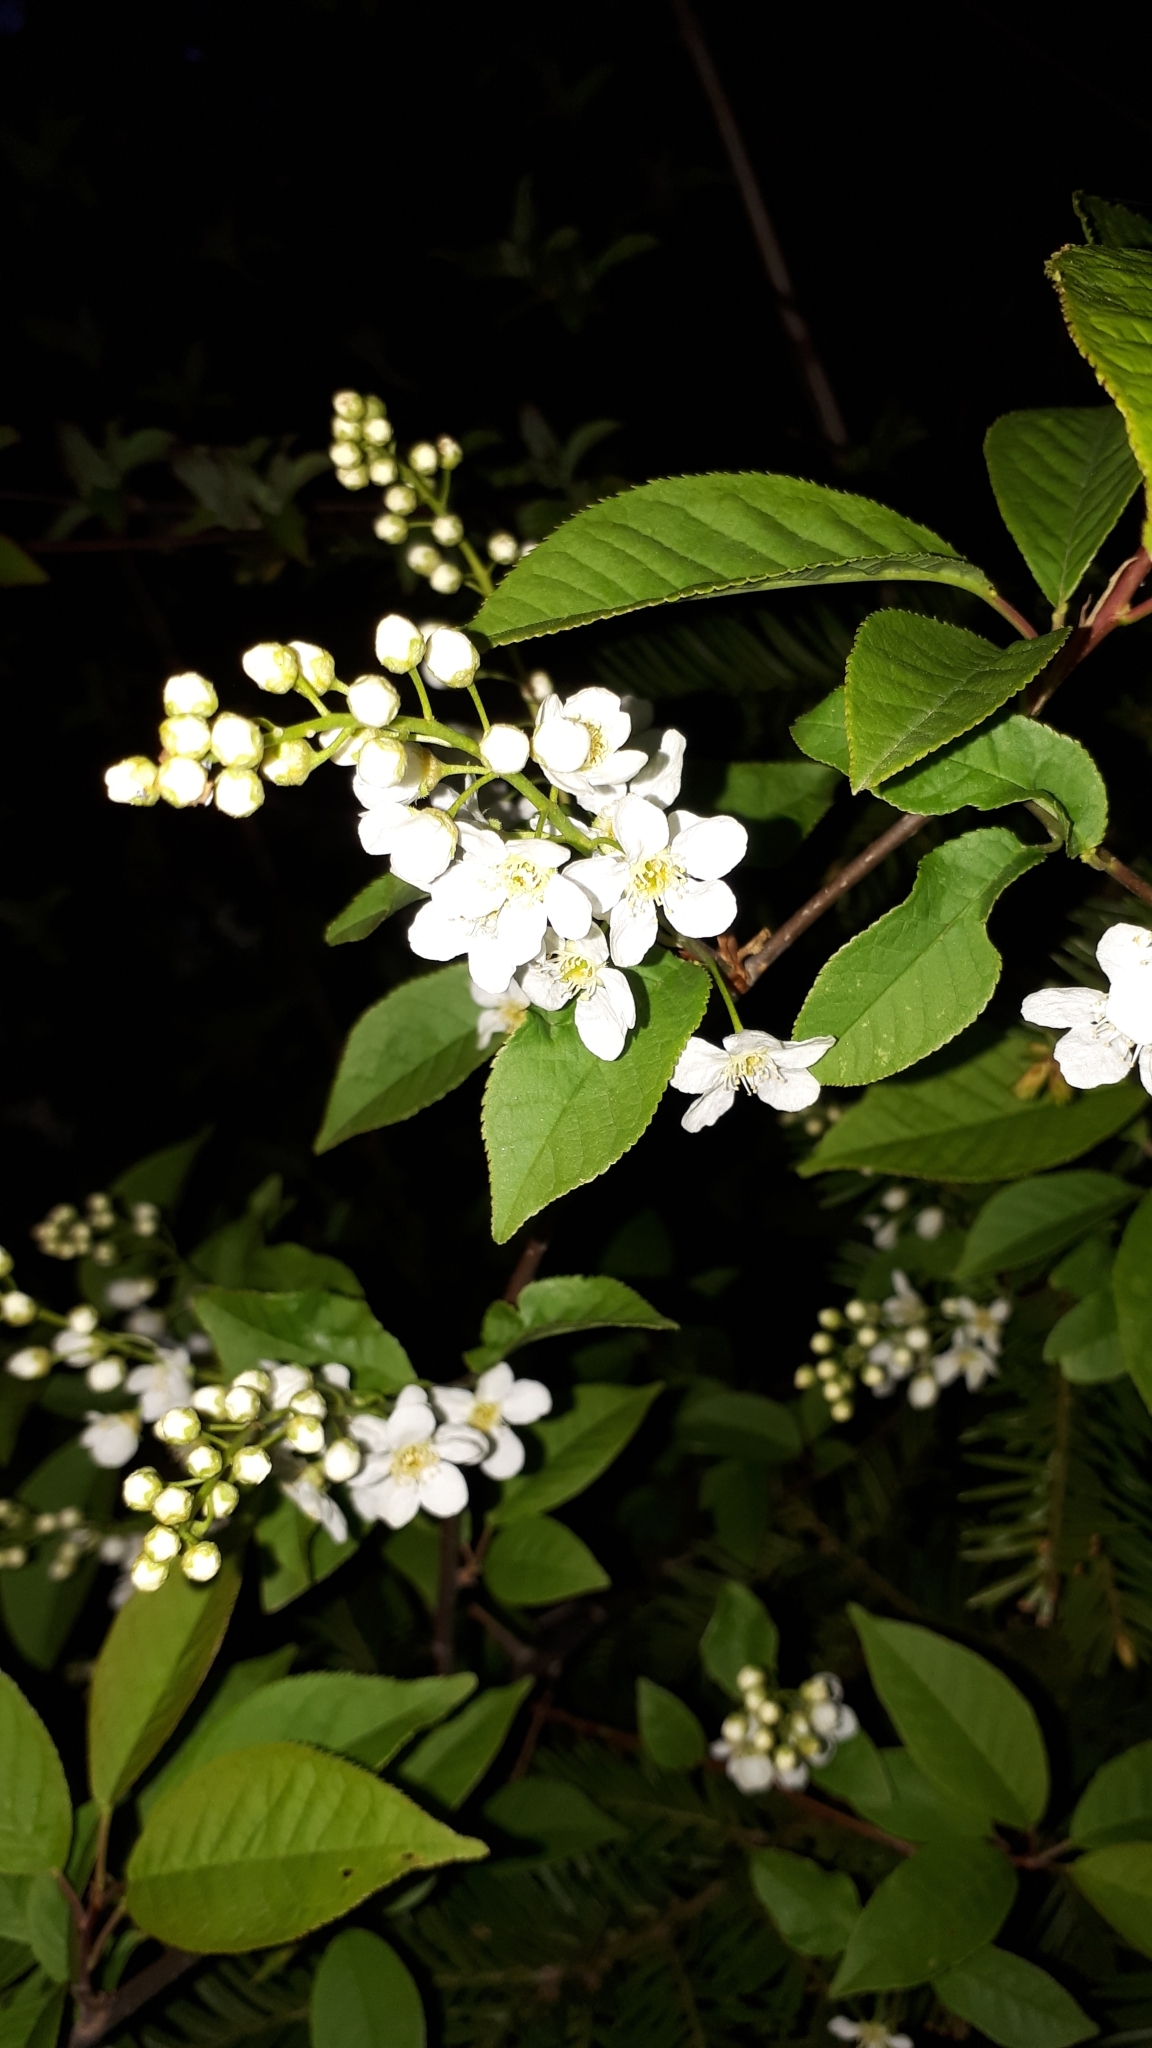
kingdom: Plantae
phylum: Tracheophyta
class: Magnoliopsida
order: Rosales
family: Rosaceae
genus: Prunus
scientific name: Prunus padus
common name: Bird cherry
